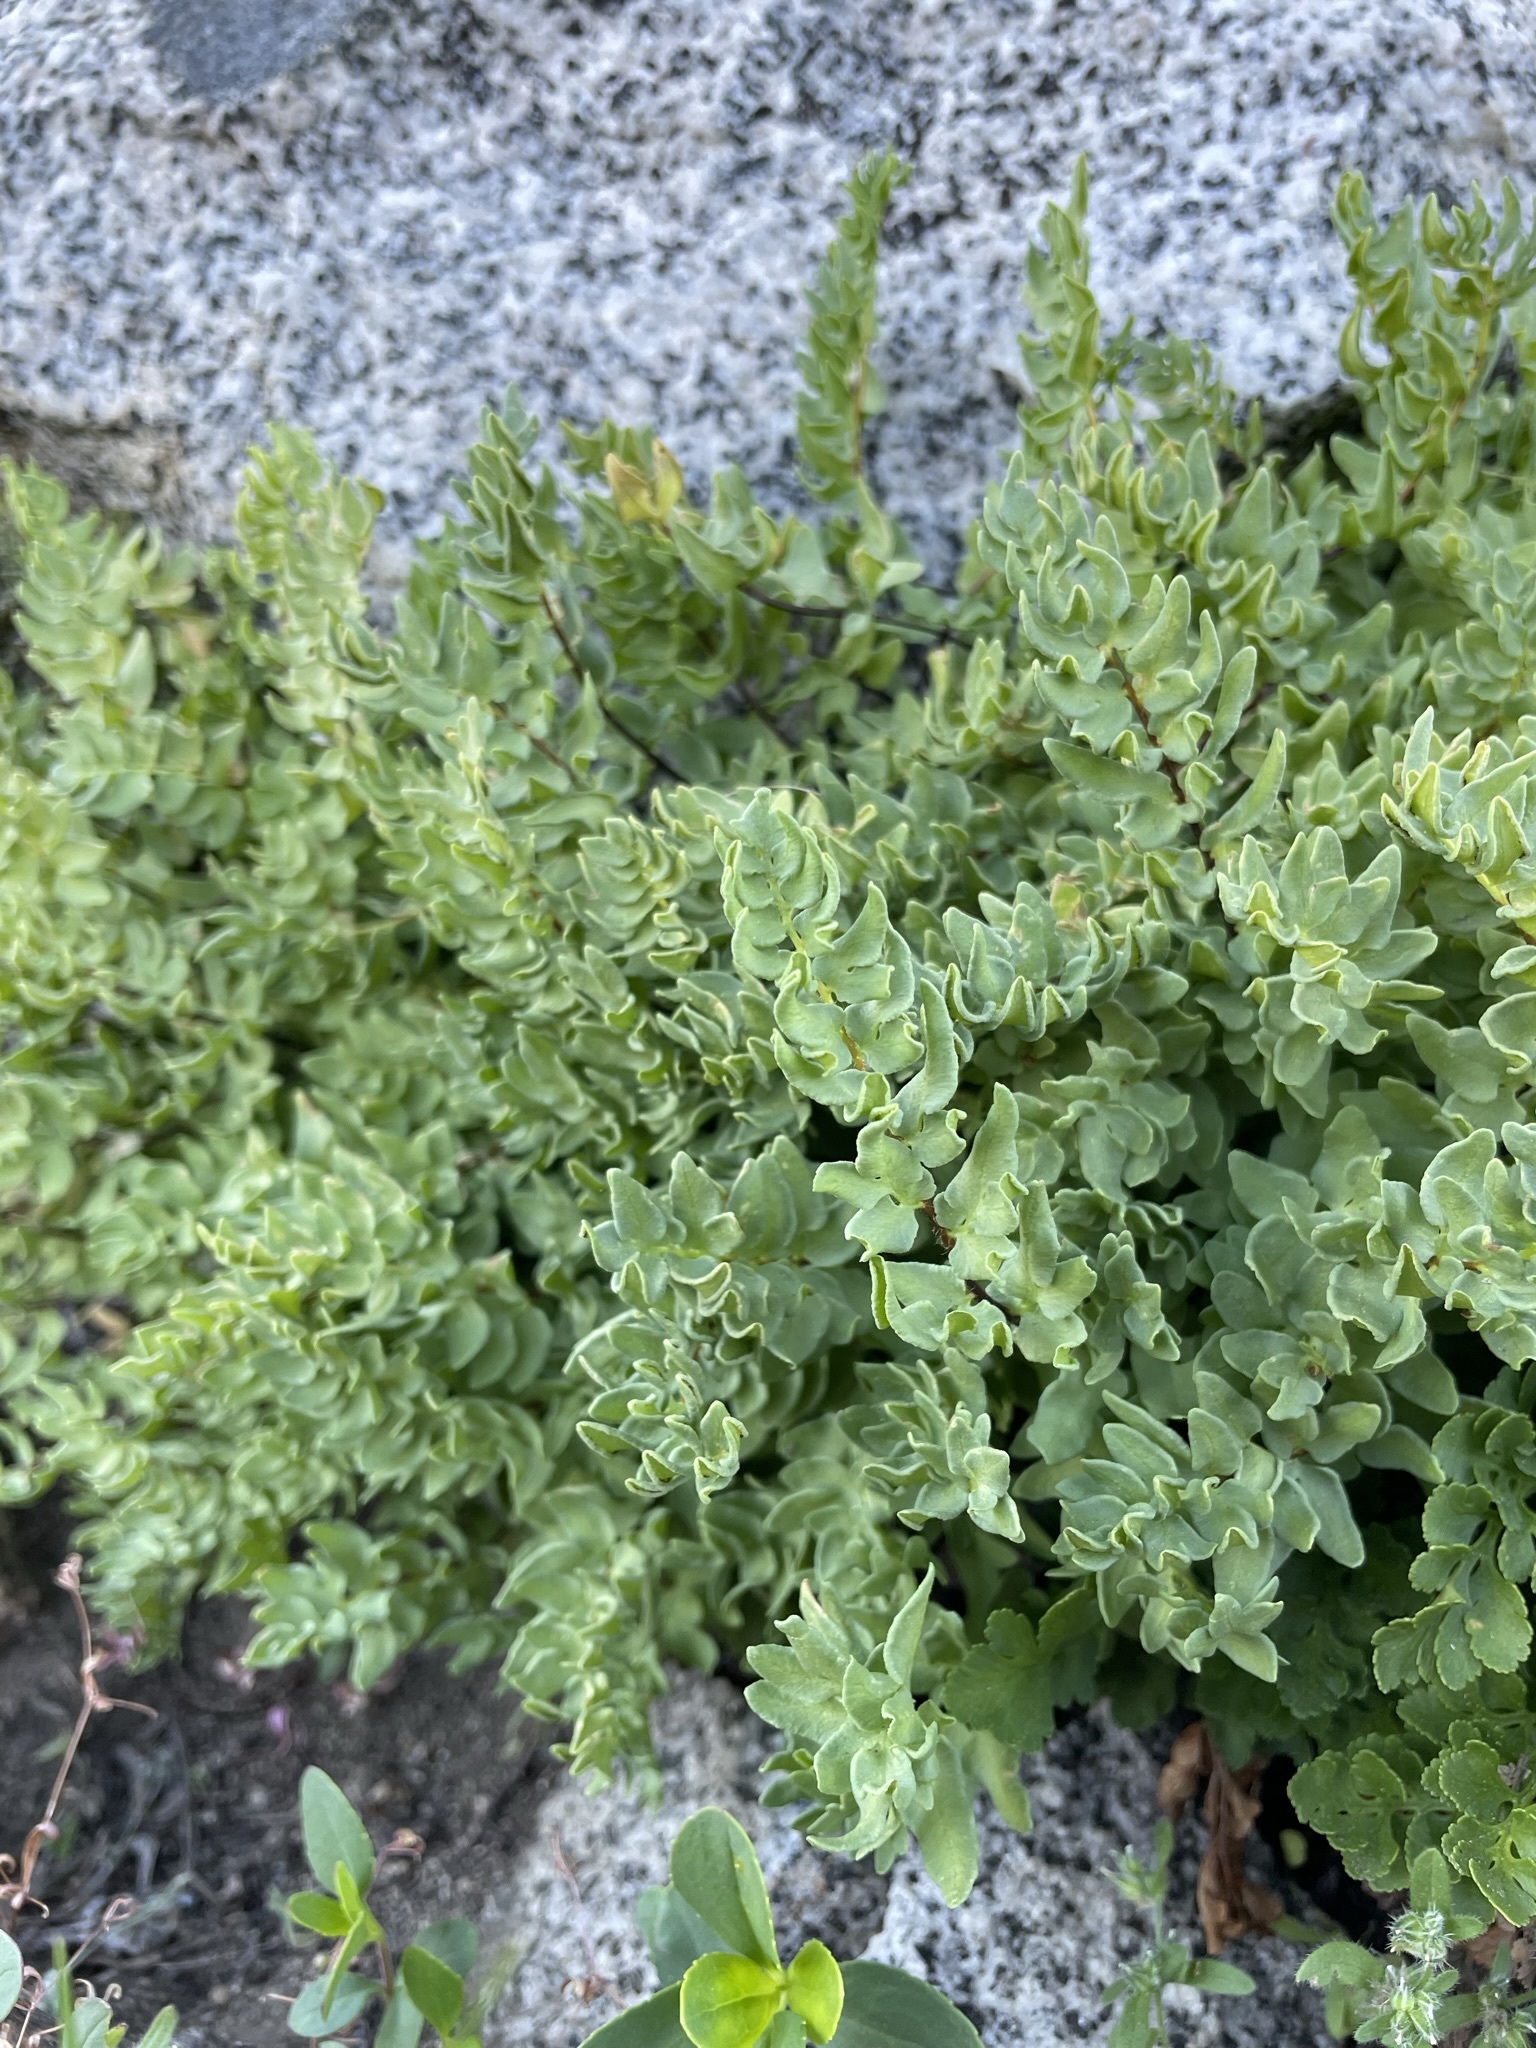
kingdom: Plantae
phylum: Tracheophyta
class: Polypodiopsida
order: Polypodiales
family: Pteridaceae
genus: Pellaea
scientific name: Pellaea breweri
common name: Brewer's cliffbrake
